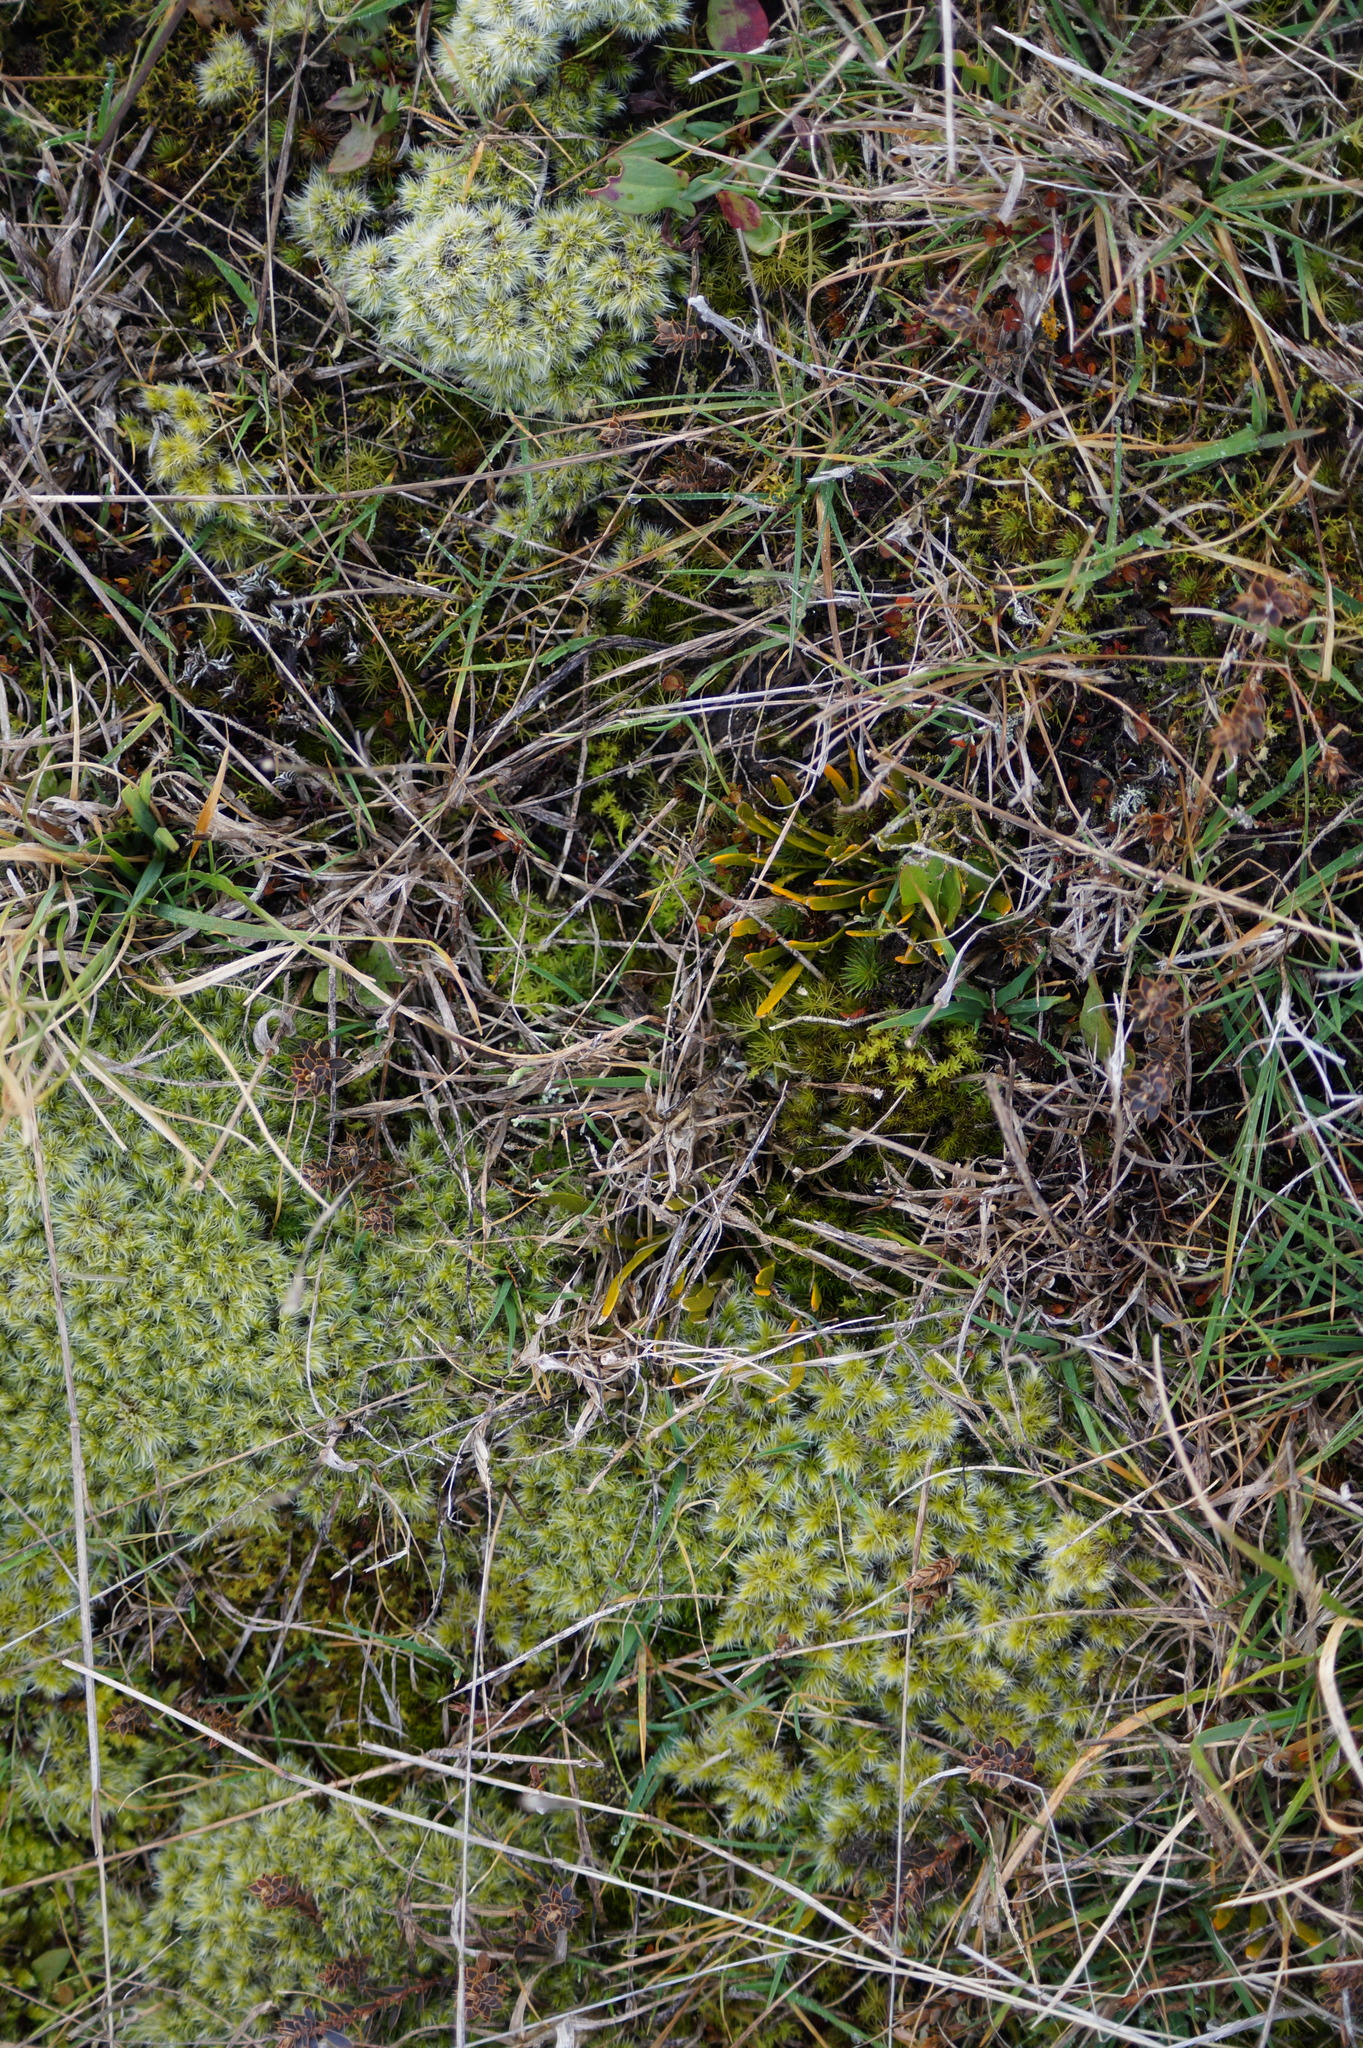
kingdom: Plantae
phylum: Tracheophyta
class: Magnoliopsida
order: Fabales
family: Fabaceae
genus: Carmichaelia
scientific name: Carmichaelia corrugata
